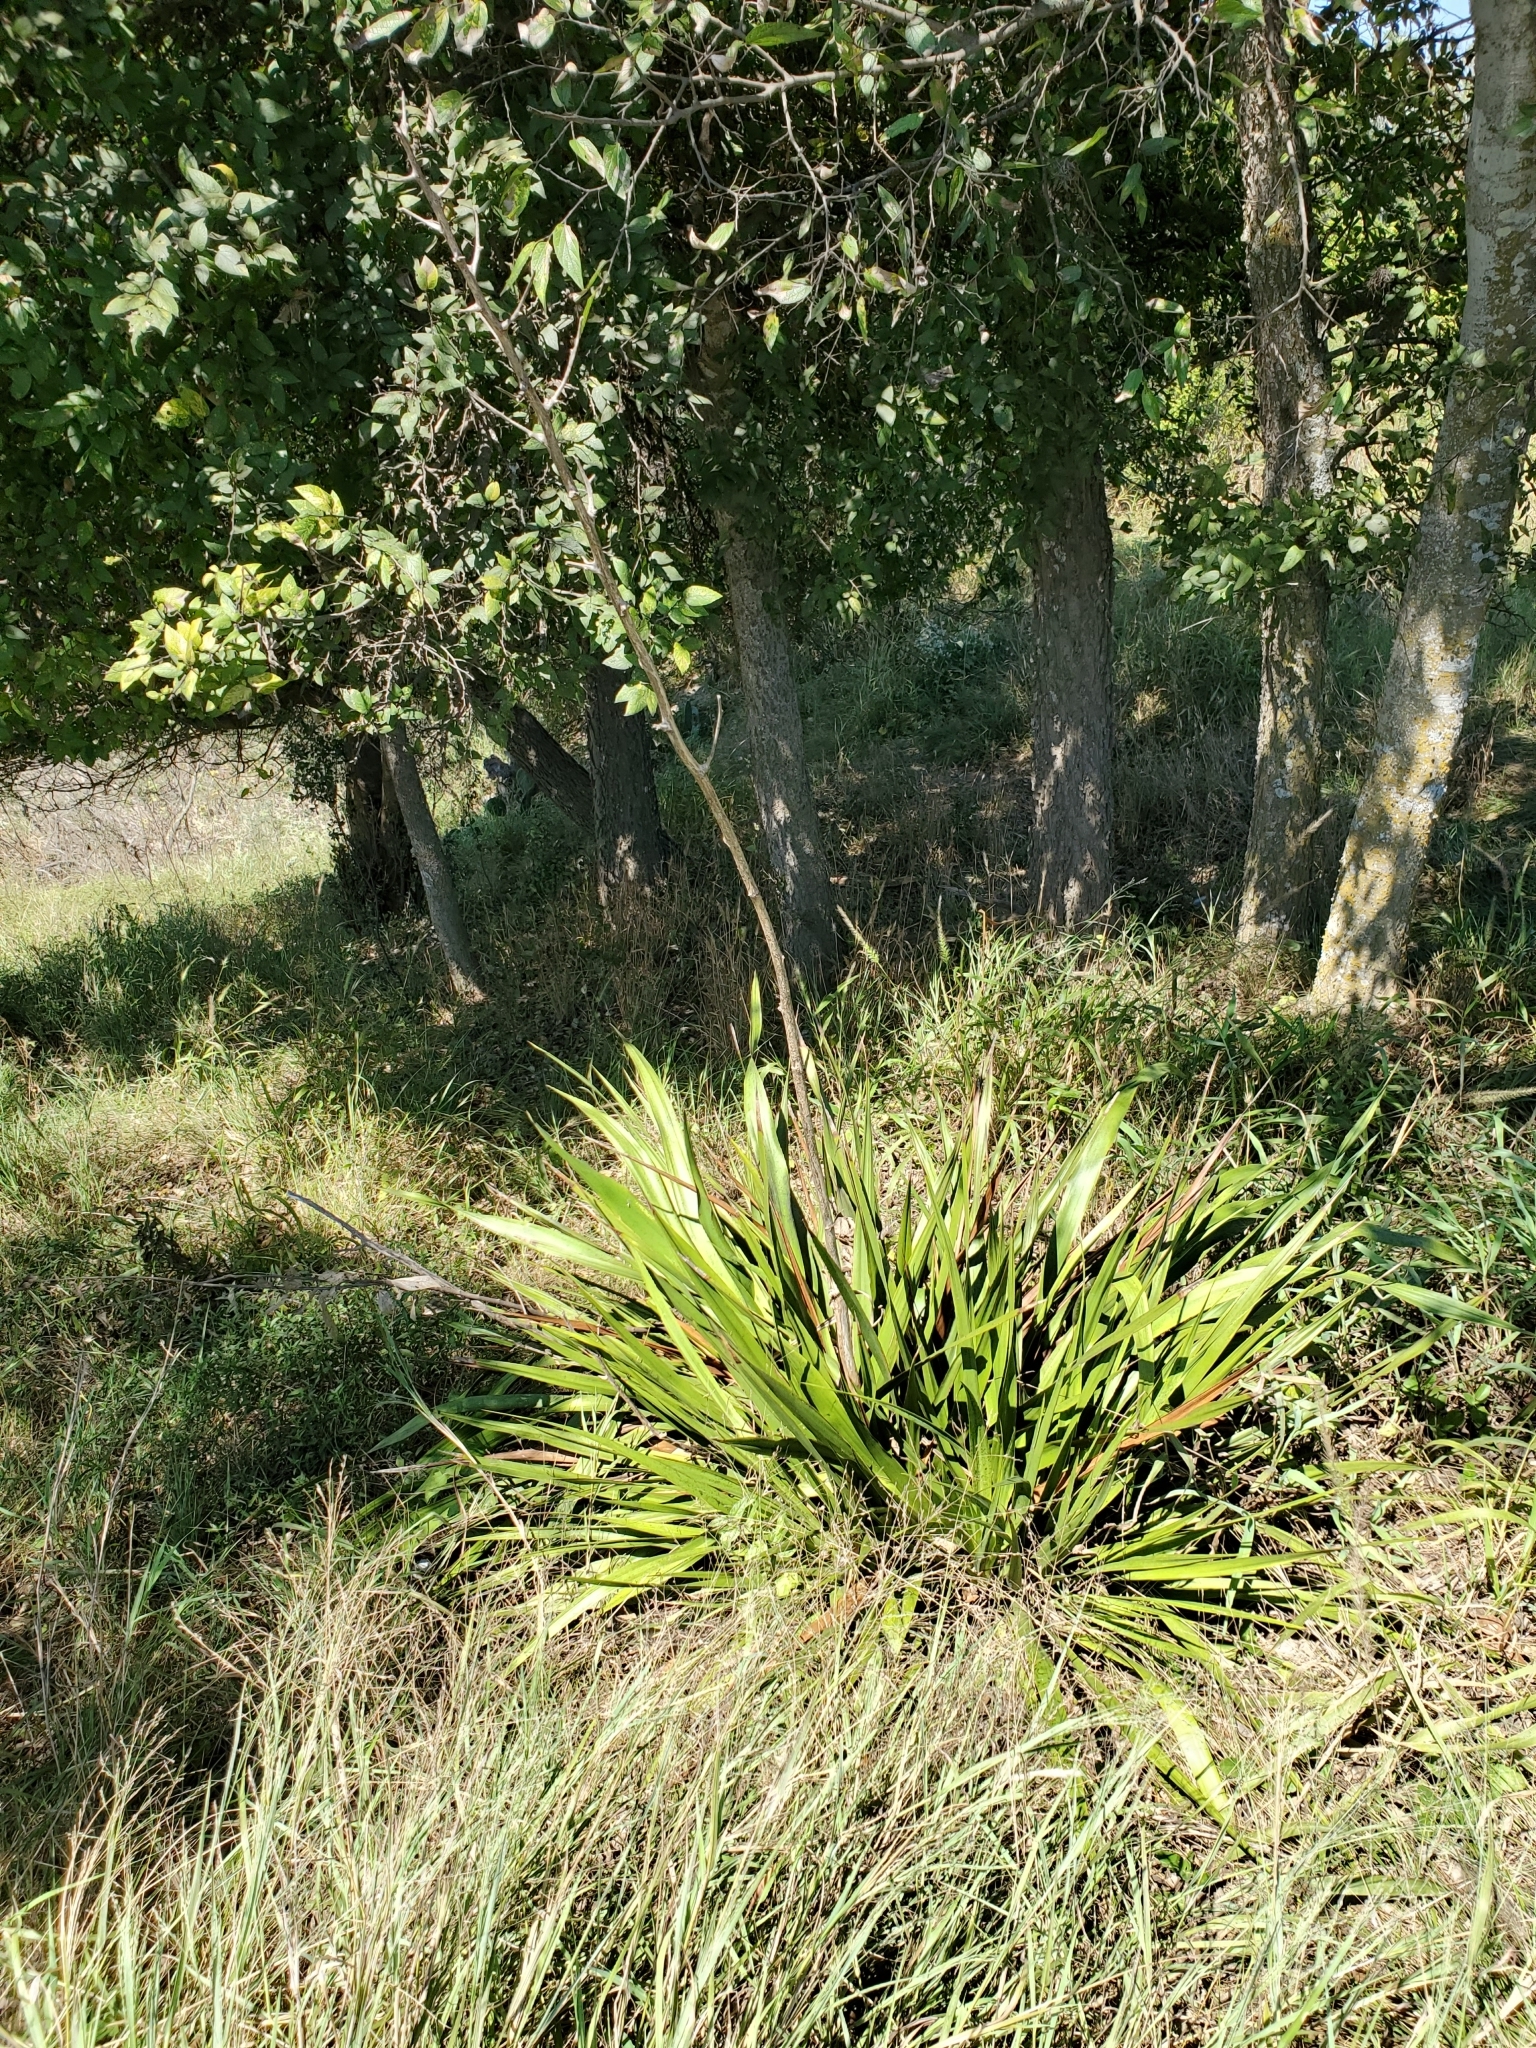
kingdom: Plantae
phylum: Tracheophyta
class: Liliopsida
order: Asparagales
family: Asparagaceae
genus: Yucca
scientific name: Yucca rupicola
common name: Twisted-leaf spanish-dagger
